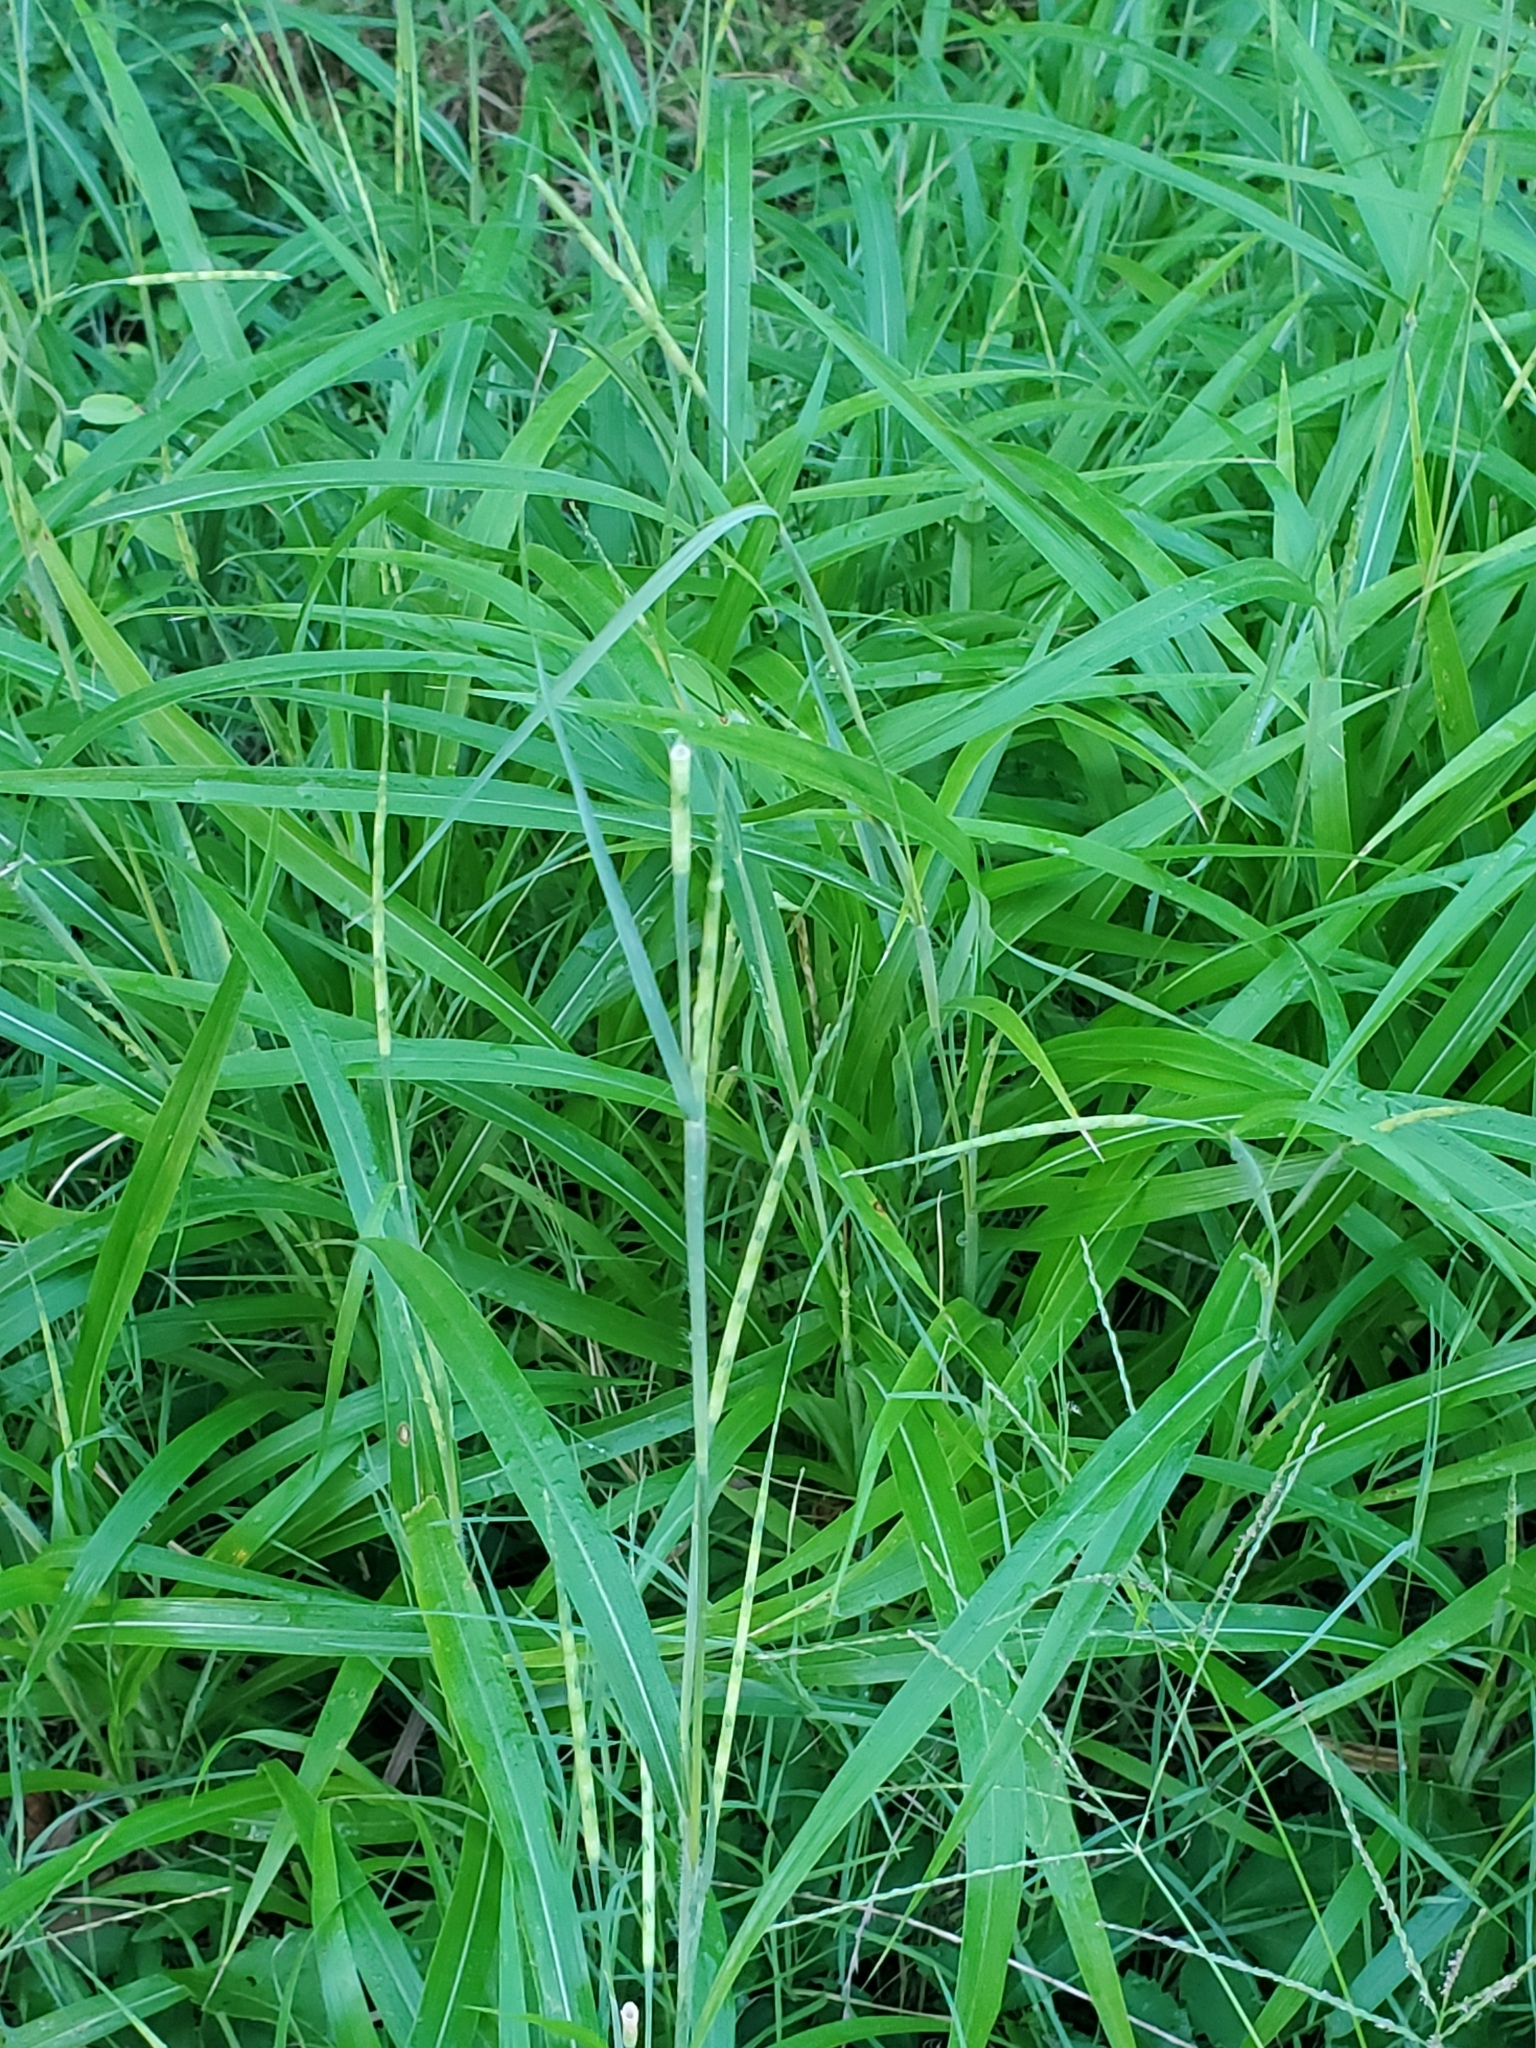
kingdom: Plantae
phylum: Tracheophyta
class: Liliopsida
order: Poales
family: Poaceae
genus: Rottboellia
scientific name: Rottboellia cochinchinensis
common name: Itchgrass
